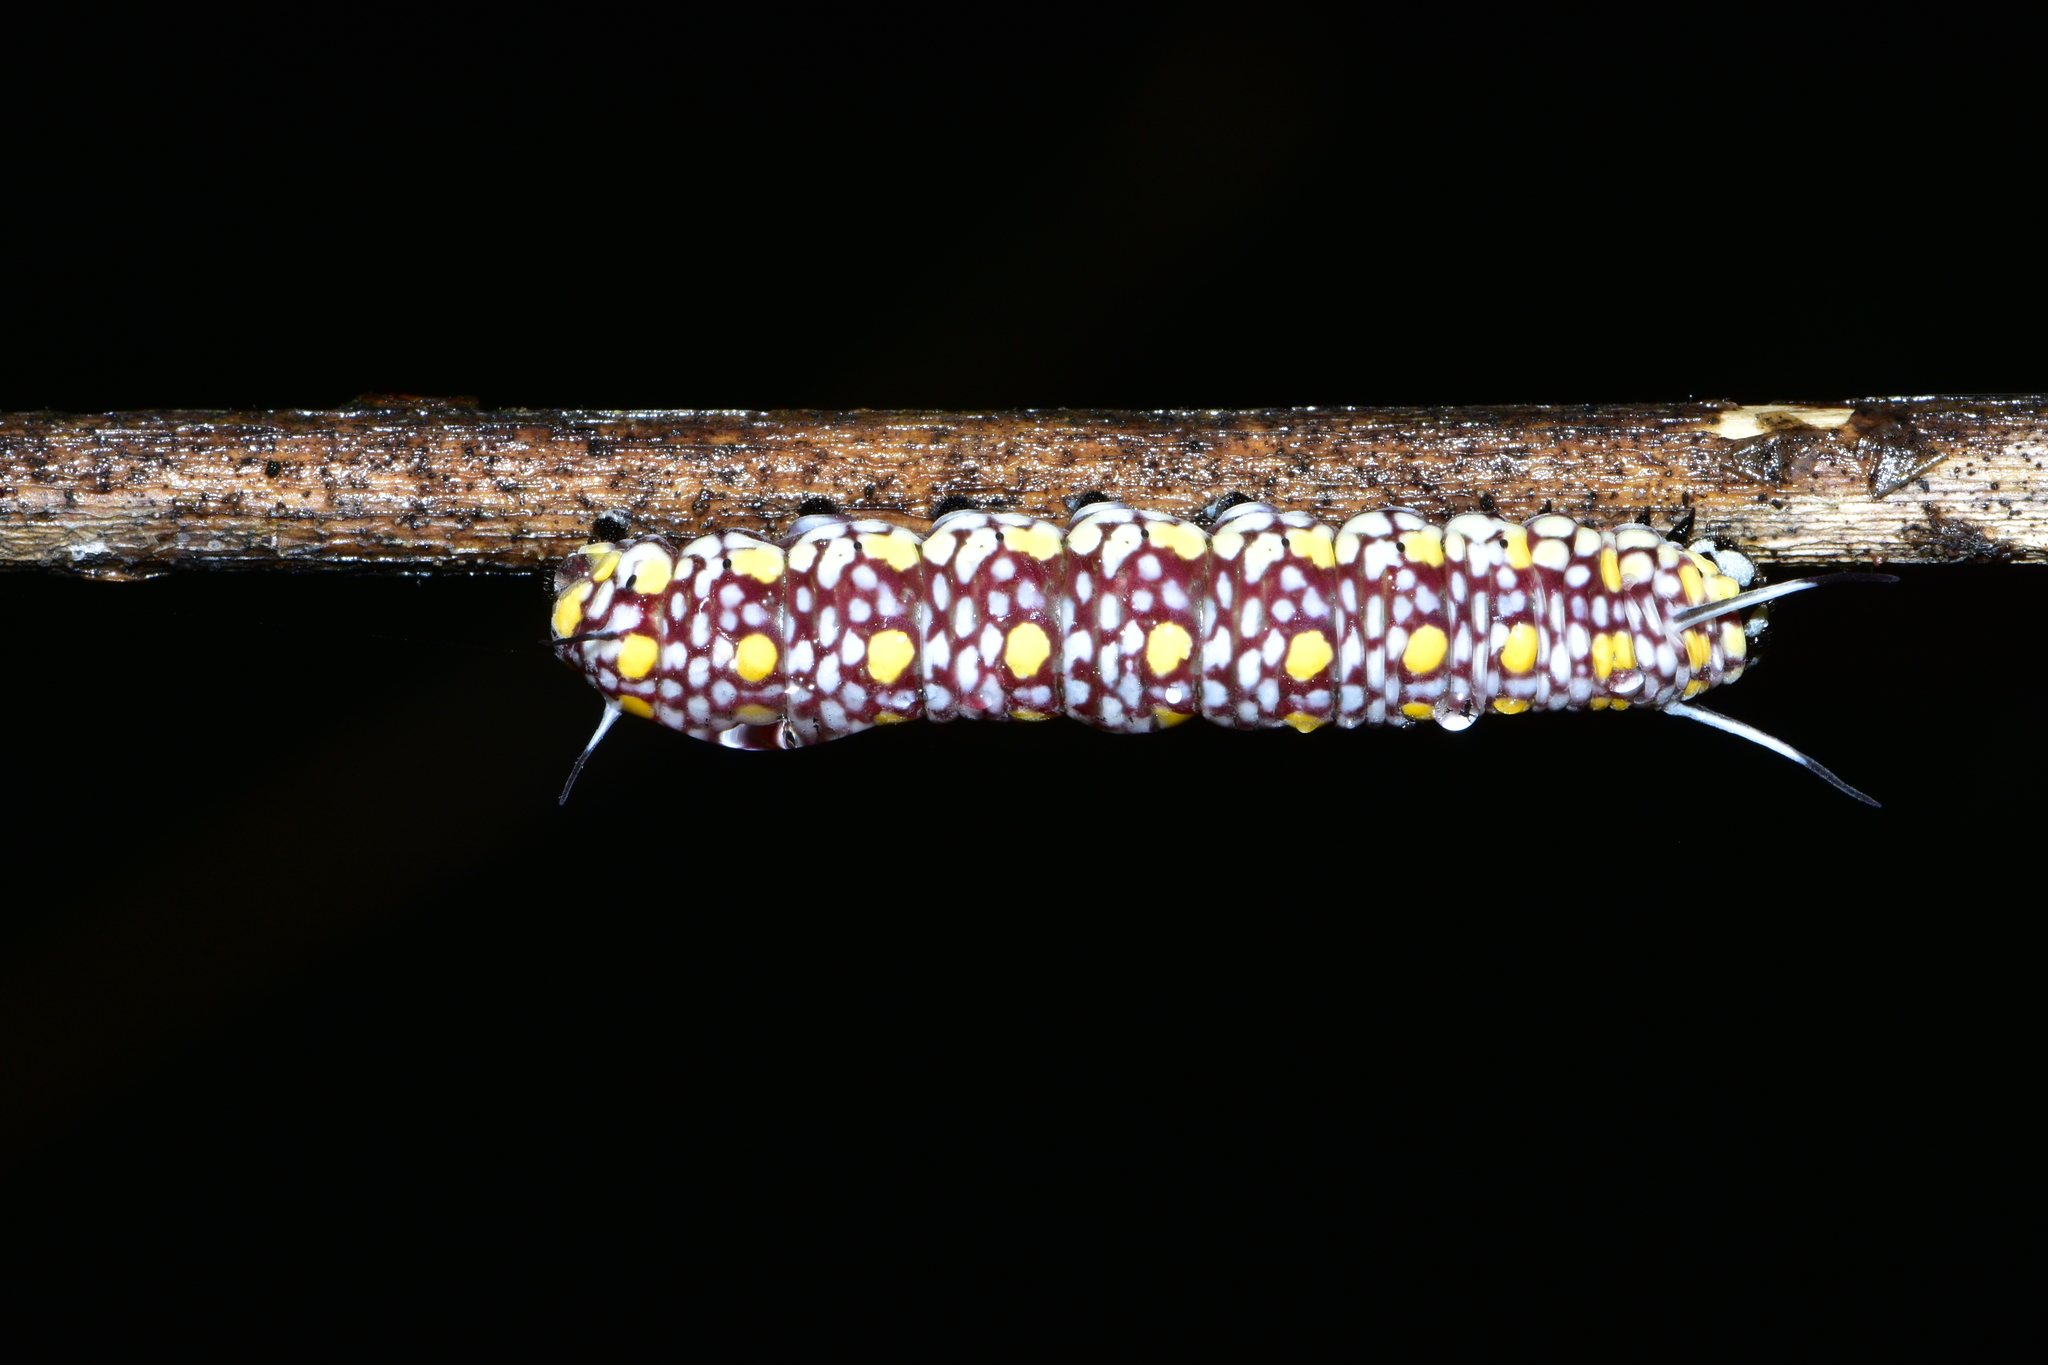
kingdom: Animalia
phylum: Arthropoda
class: Insecta
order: Lepidoptera
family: Nymphalidae
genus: Parantica
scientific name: Parantica aglea
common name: Glassy tiger
